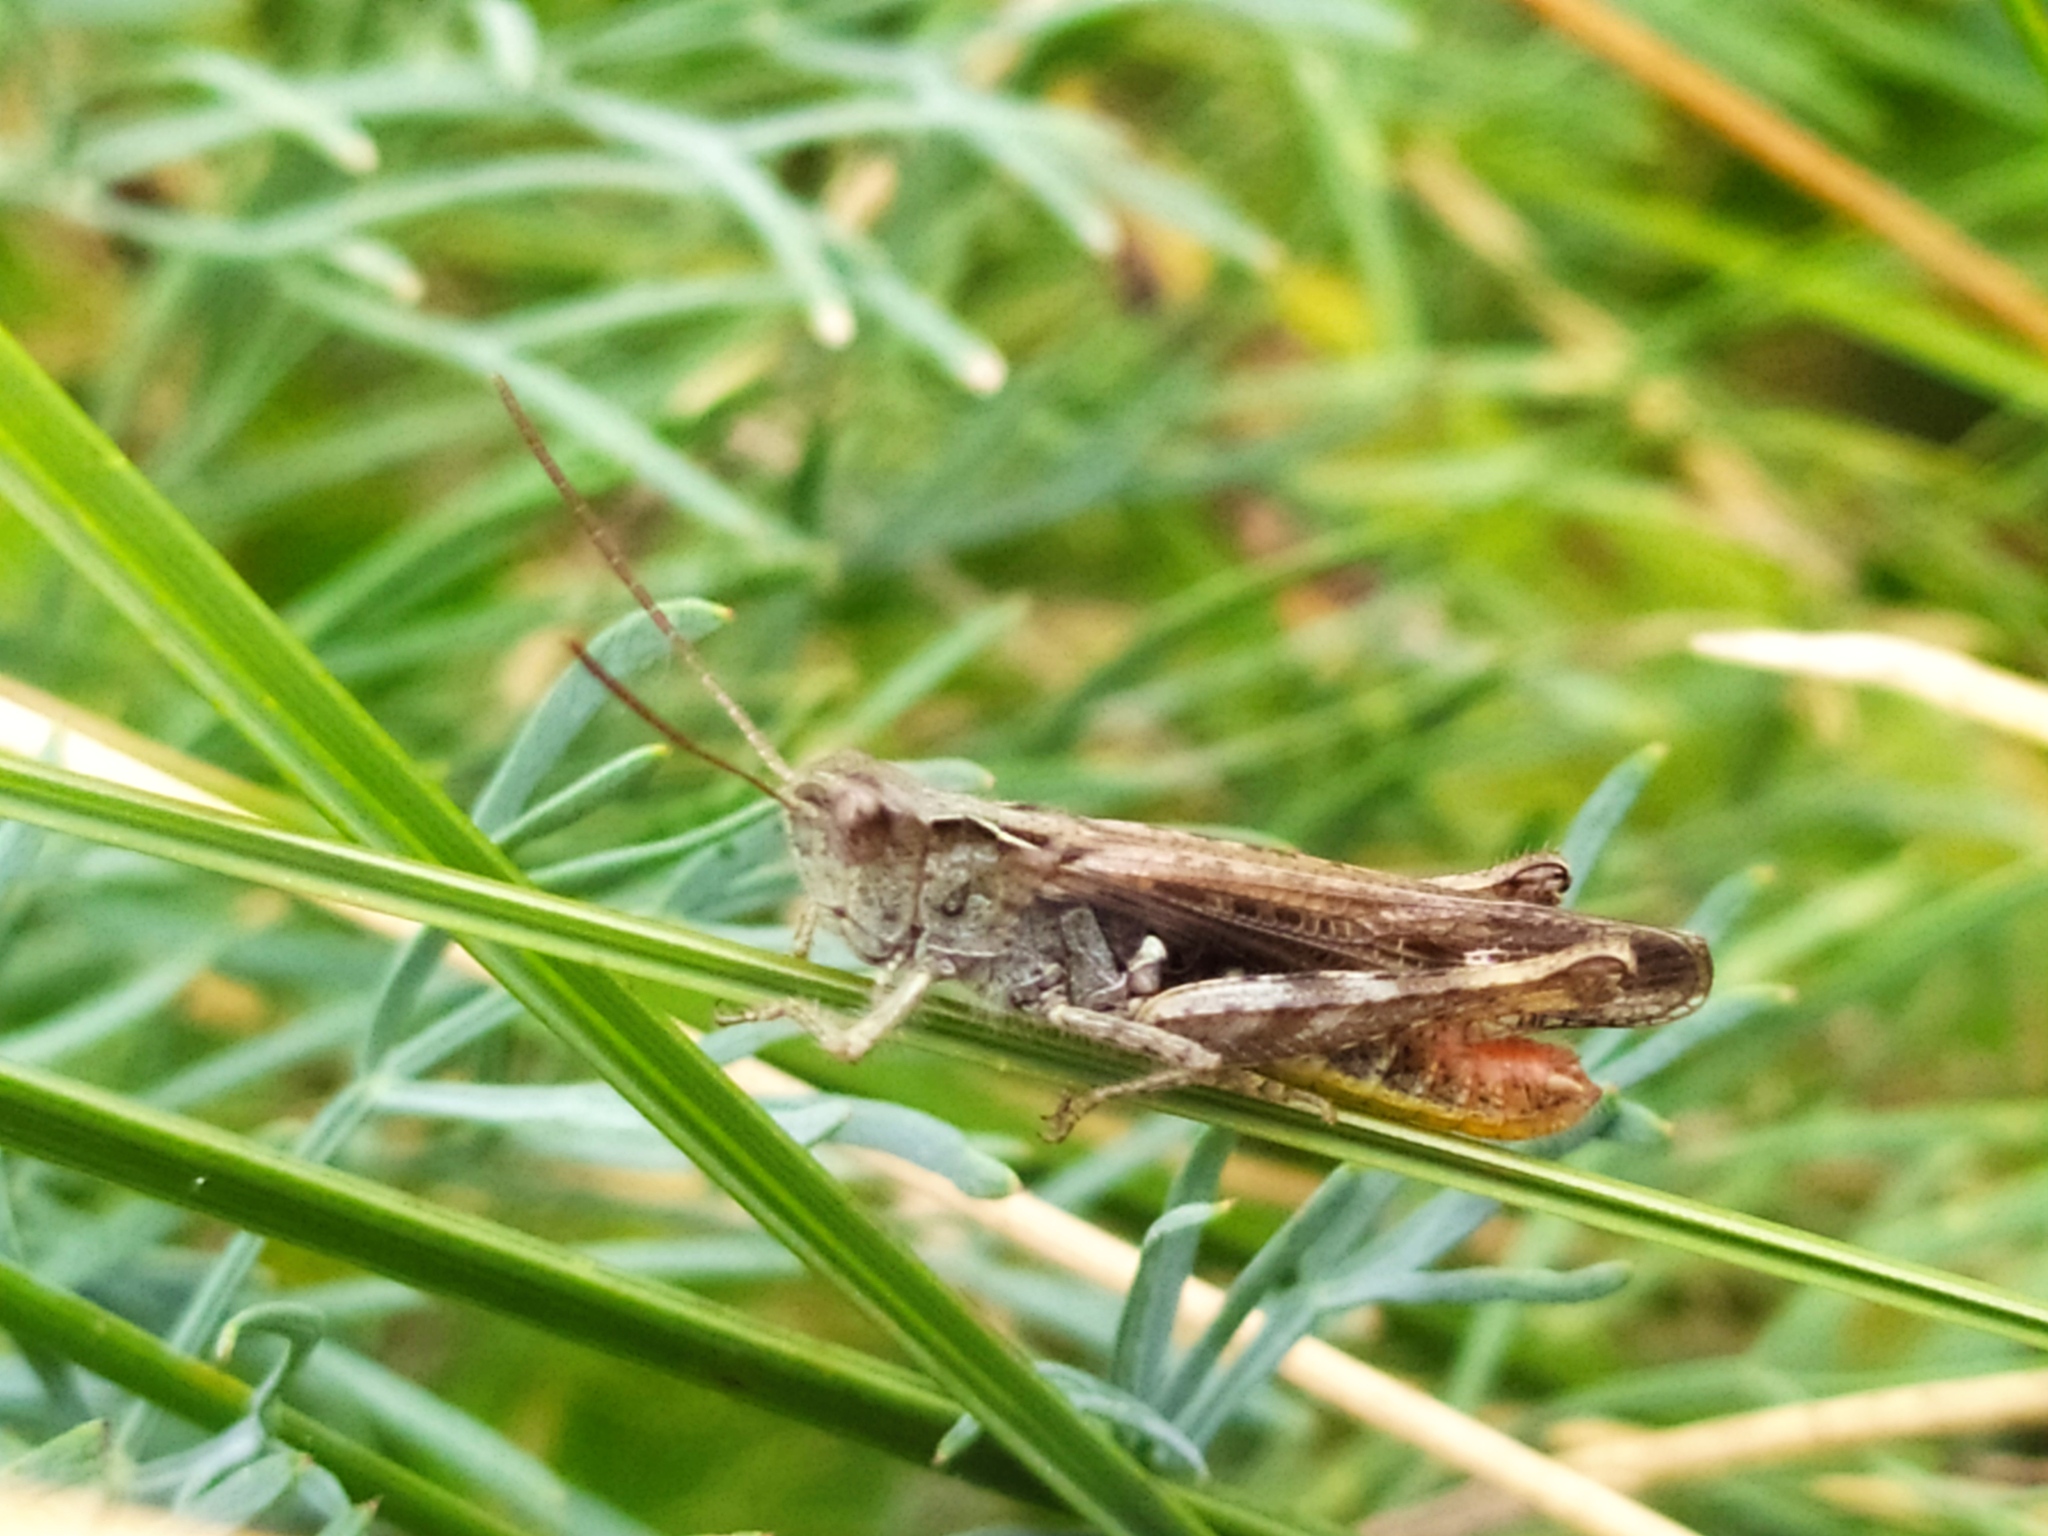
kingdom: Animalia
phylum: Arthropoda
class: Insecta
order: Orthoptera
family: Acrididae
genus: Chorthippus
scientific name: Chorthippus biguttulus
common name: Bow-winged grasshopper
